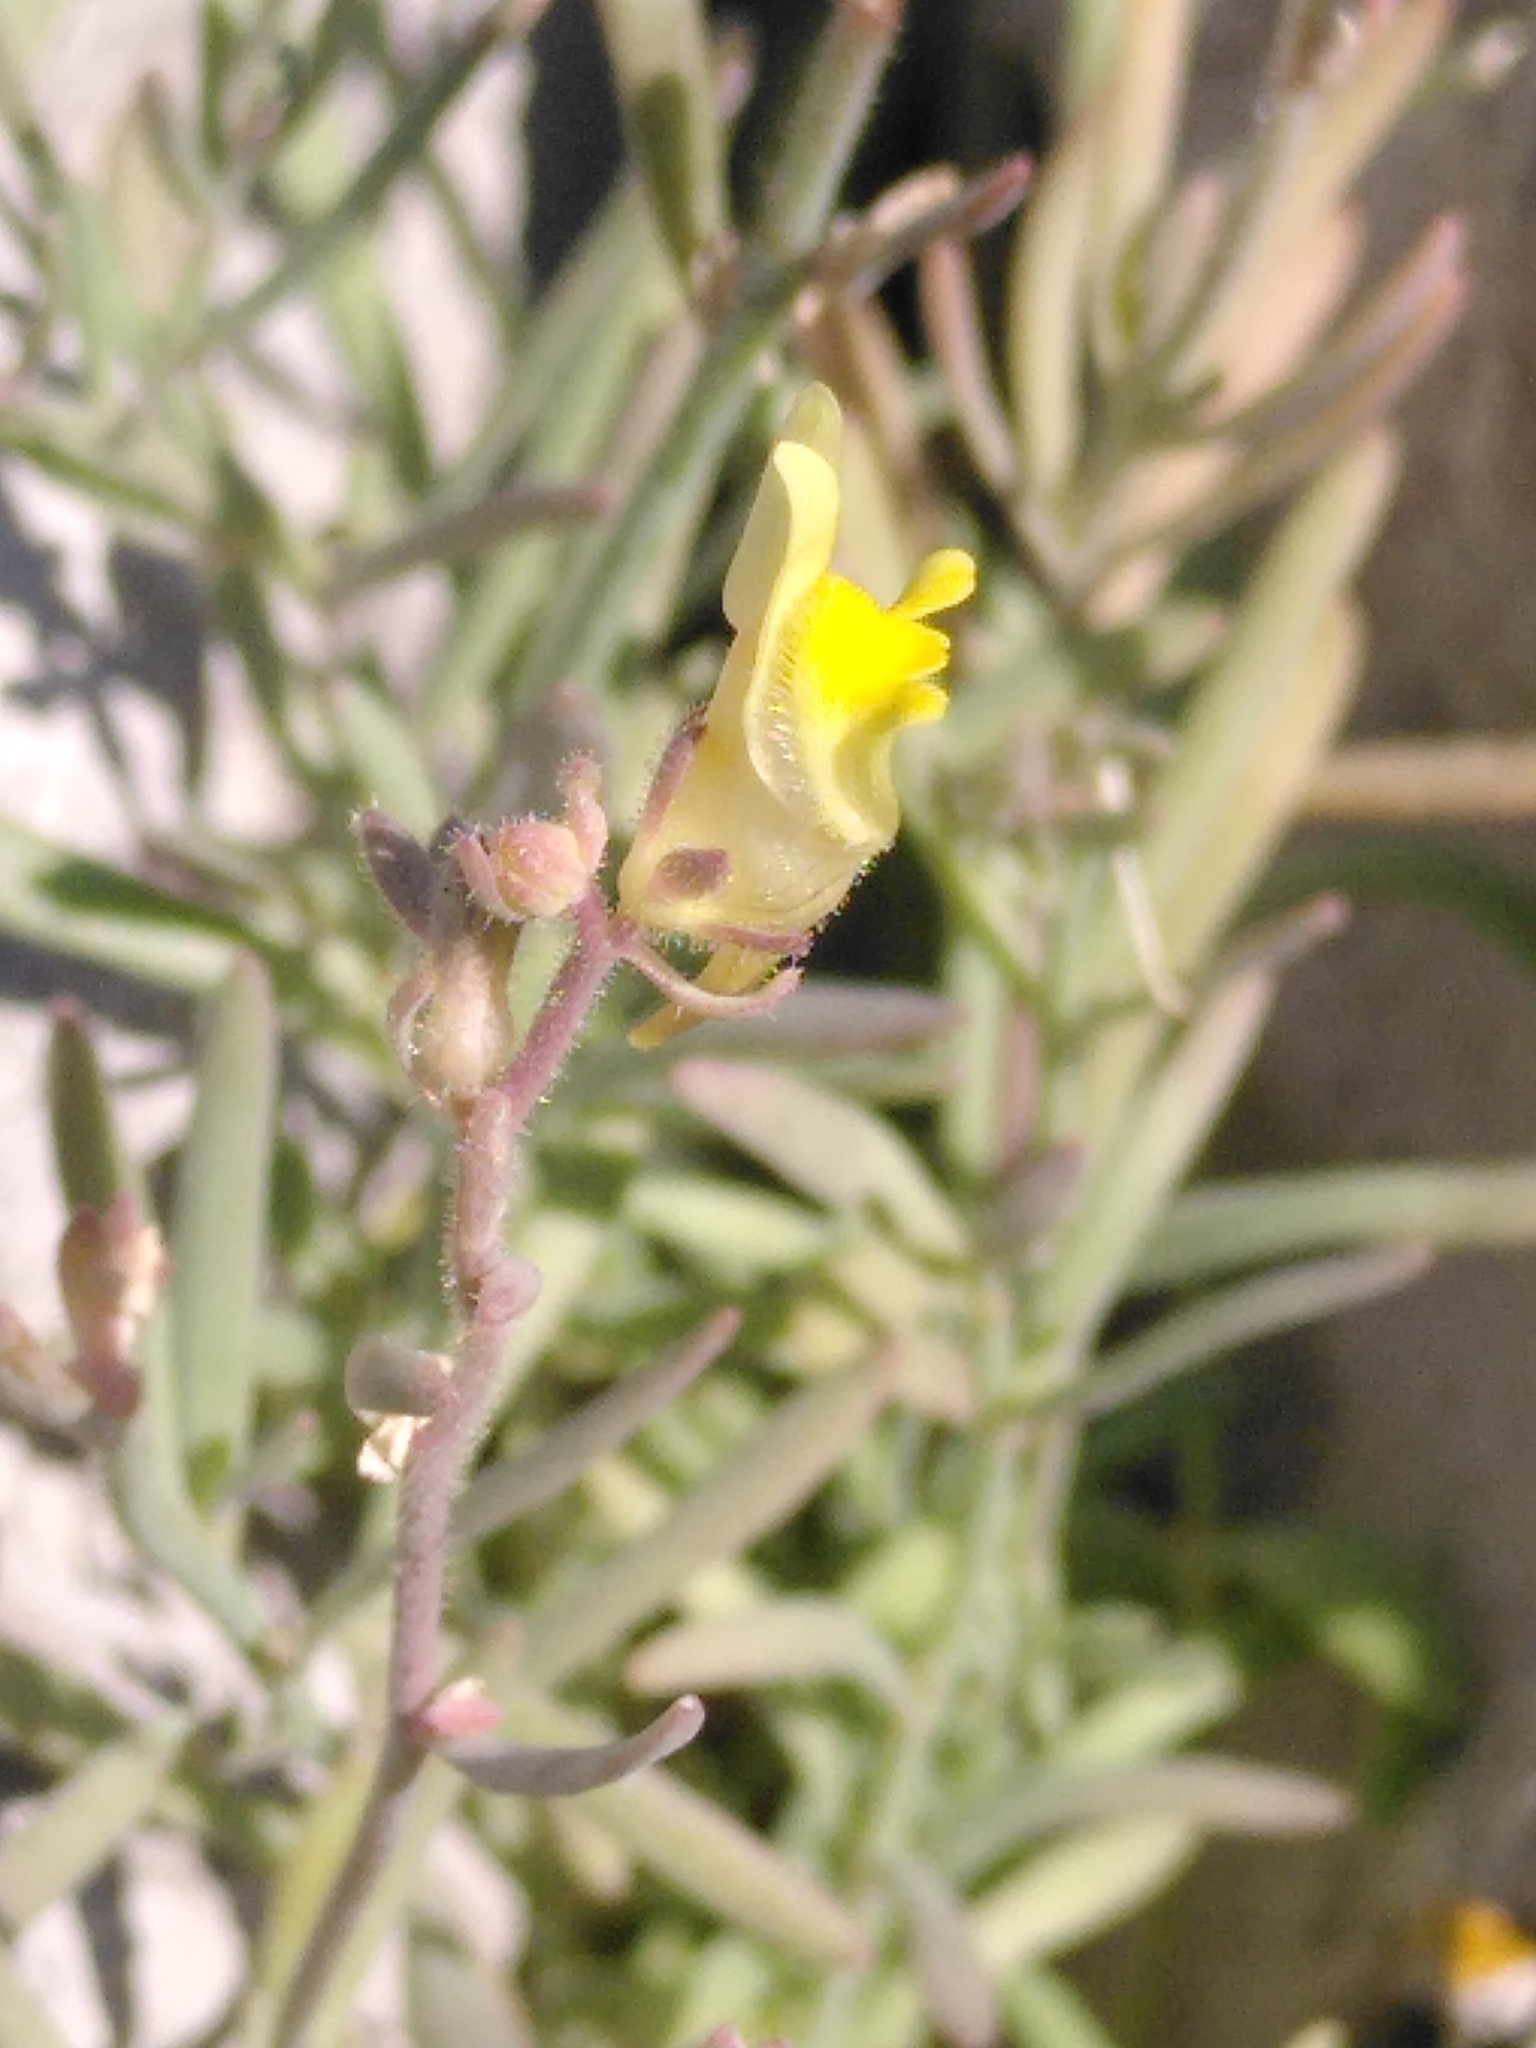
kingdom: Plantae
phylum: Tracheophyta
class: Magnoliopsida
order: Lamiales
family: Plantaginaceae
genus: Linaria
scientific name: Linaria supina
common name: Prostrate toadflax
